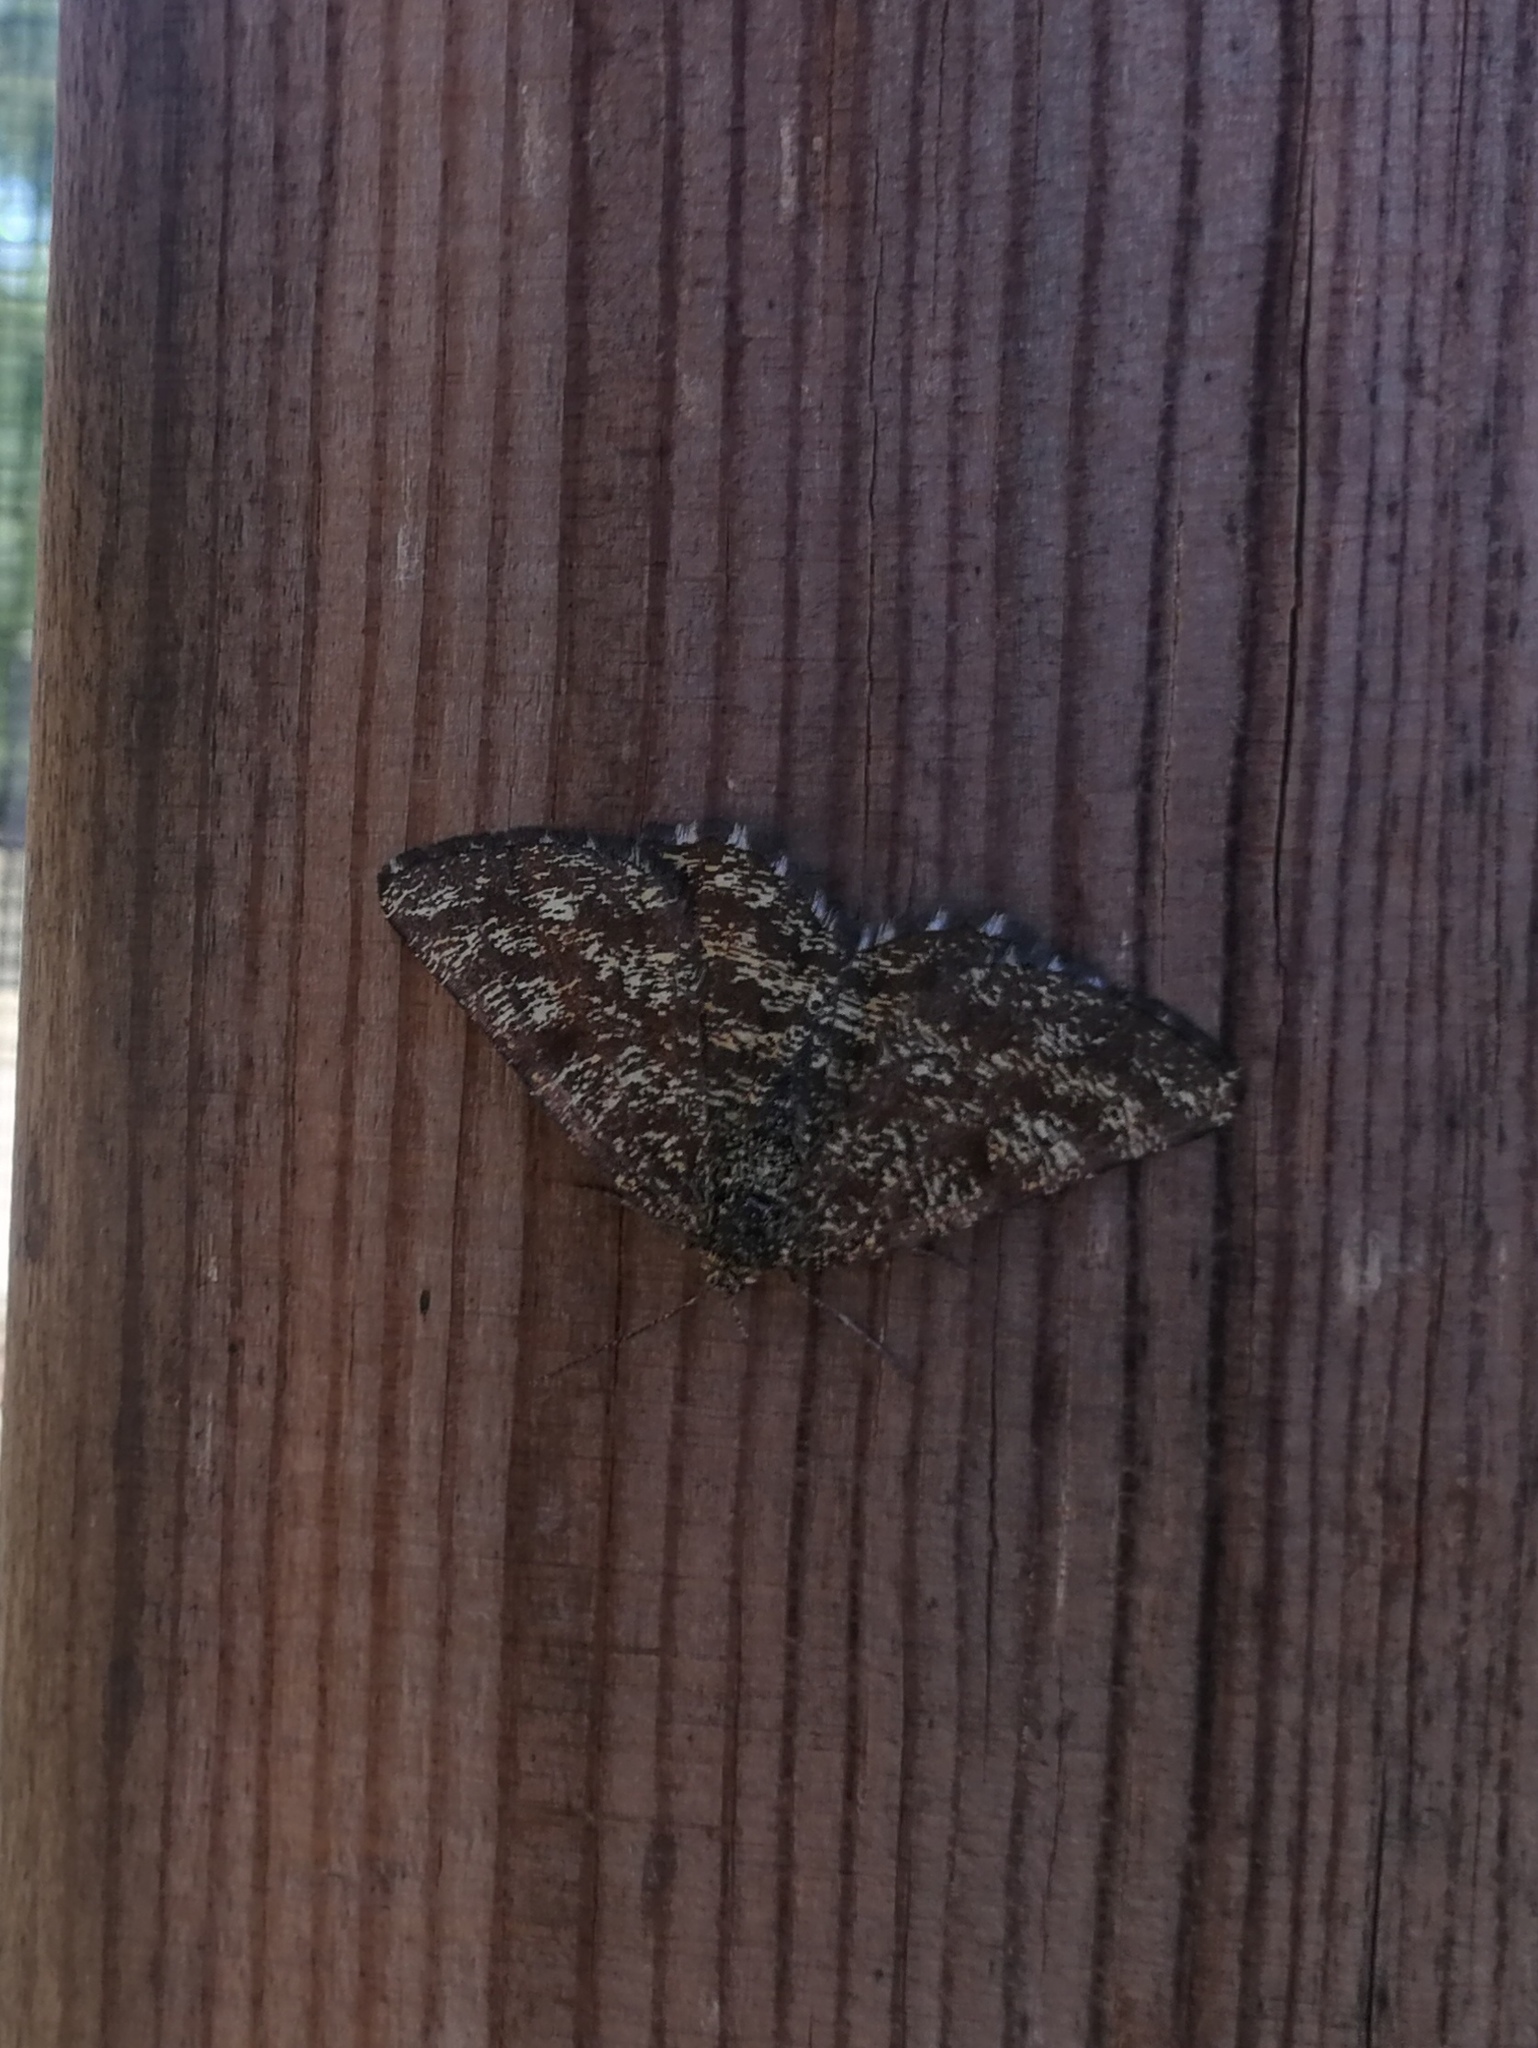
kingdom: Animalia
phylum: Arthropoda
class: Insecta
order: Lepidoptera
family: Geometridae
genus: Ematurga
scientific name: Ematurga atomaria
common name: Common heath
